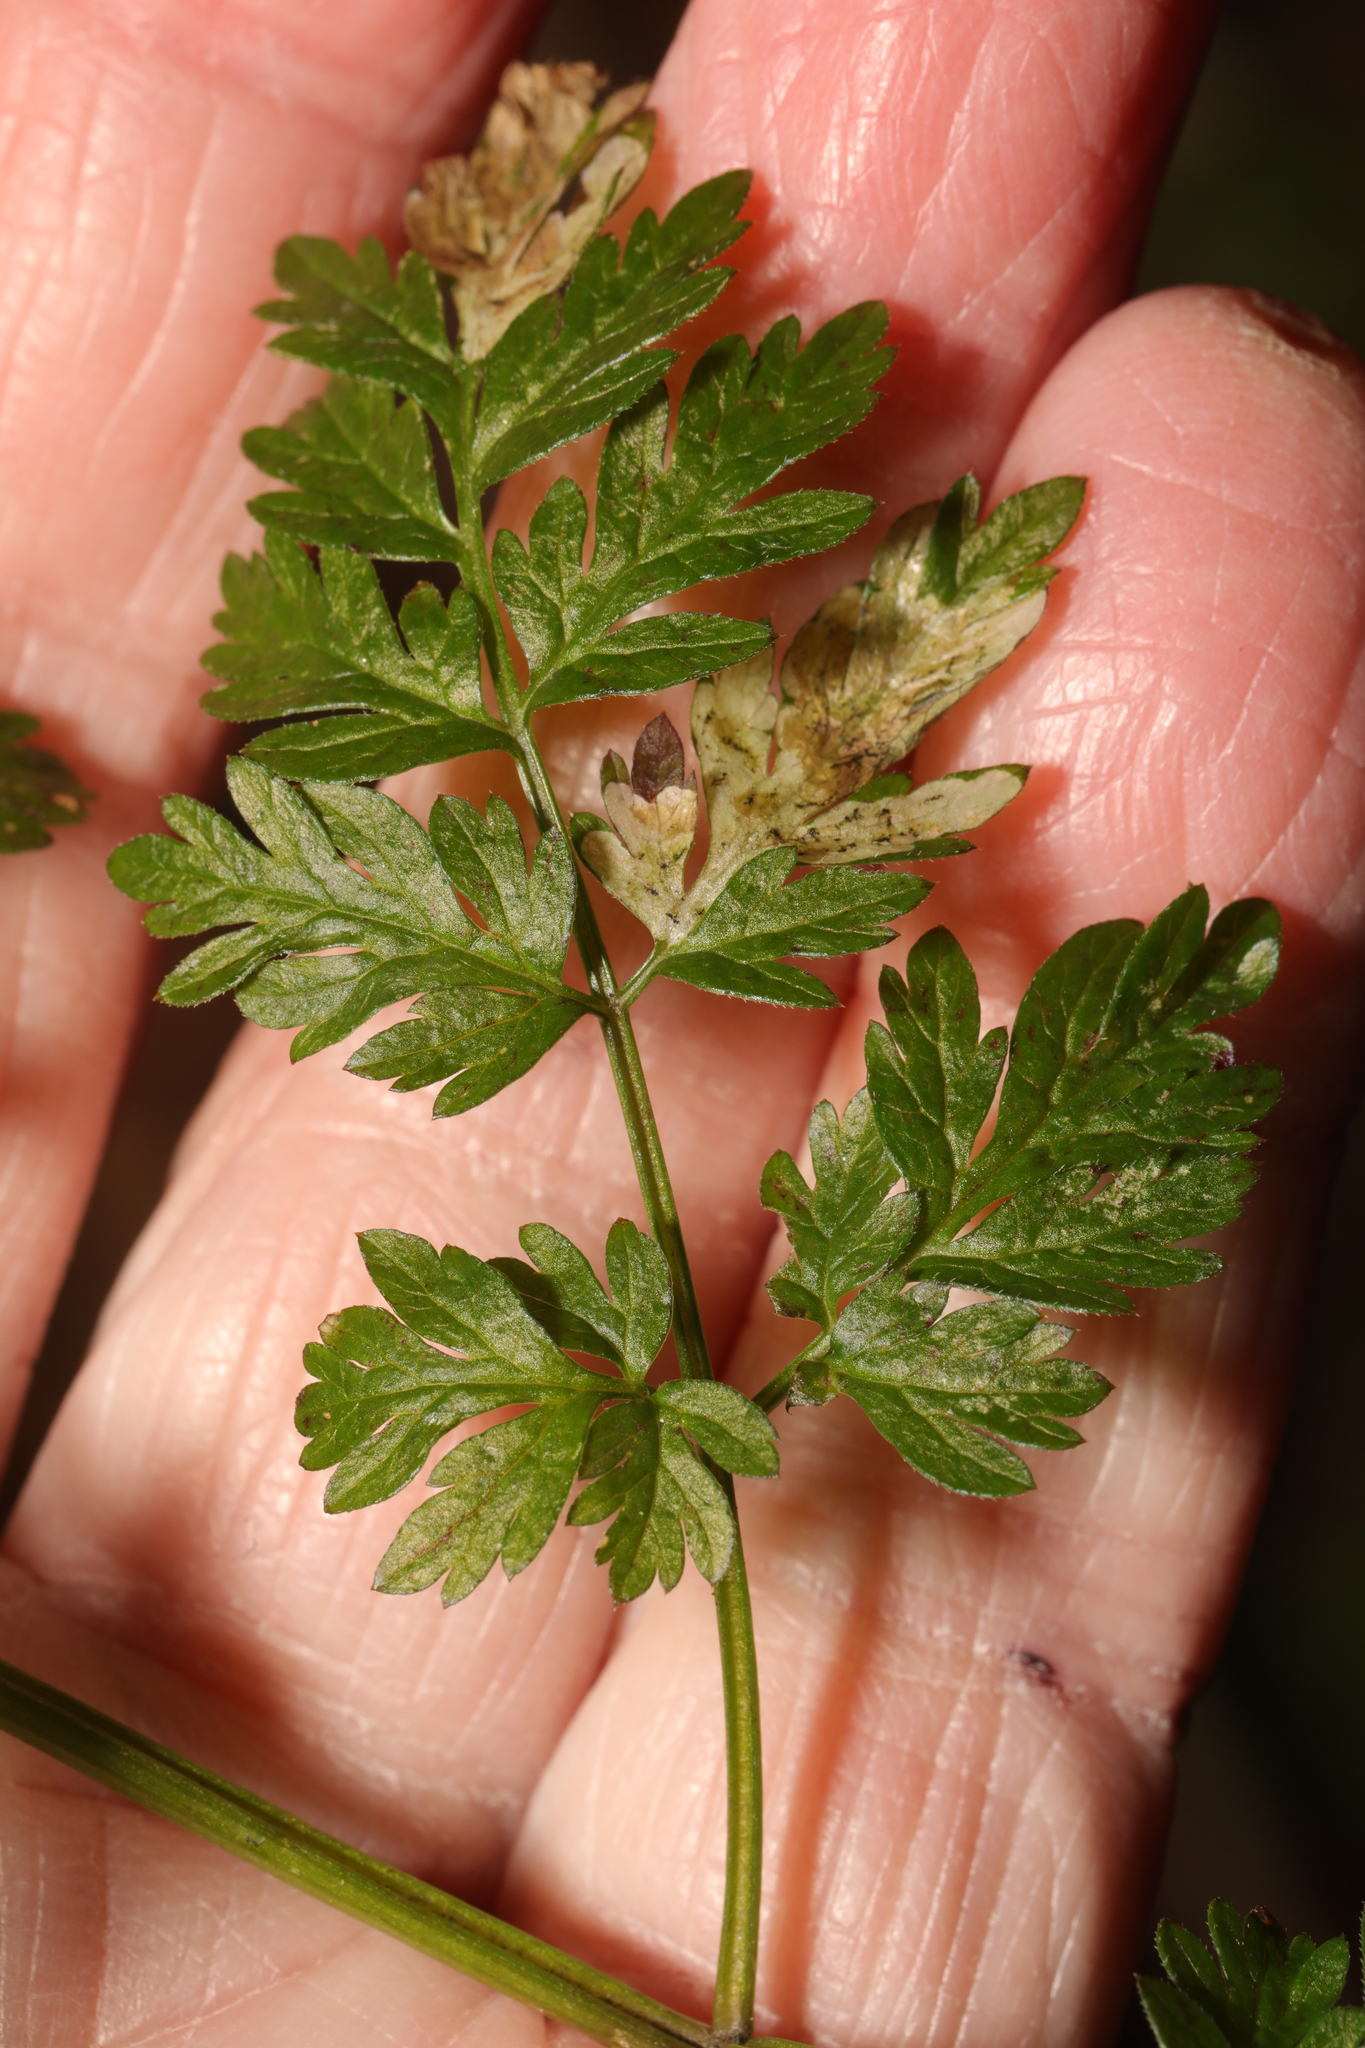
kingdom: Animalia
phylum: Arthropoda
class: Insecta
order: Diptera
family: Agromyzidae
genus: Phytomyza
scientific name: Phytomyza chaerophylli
